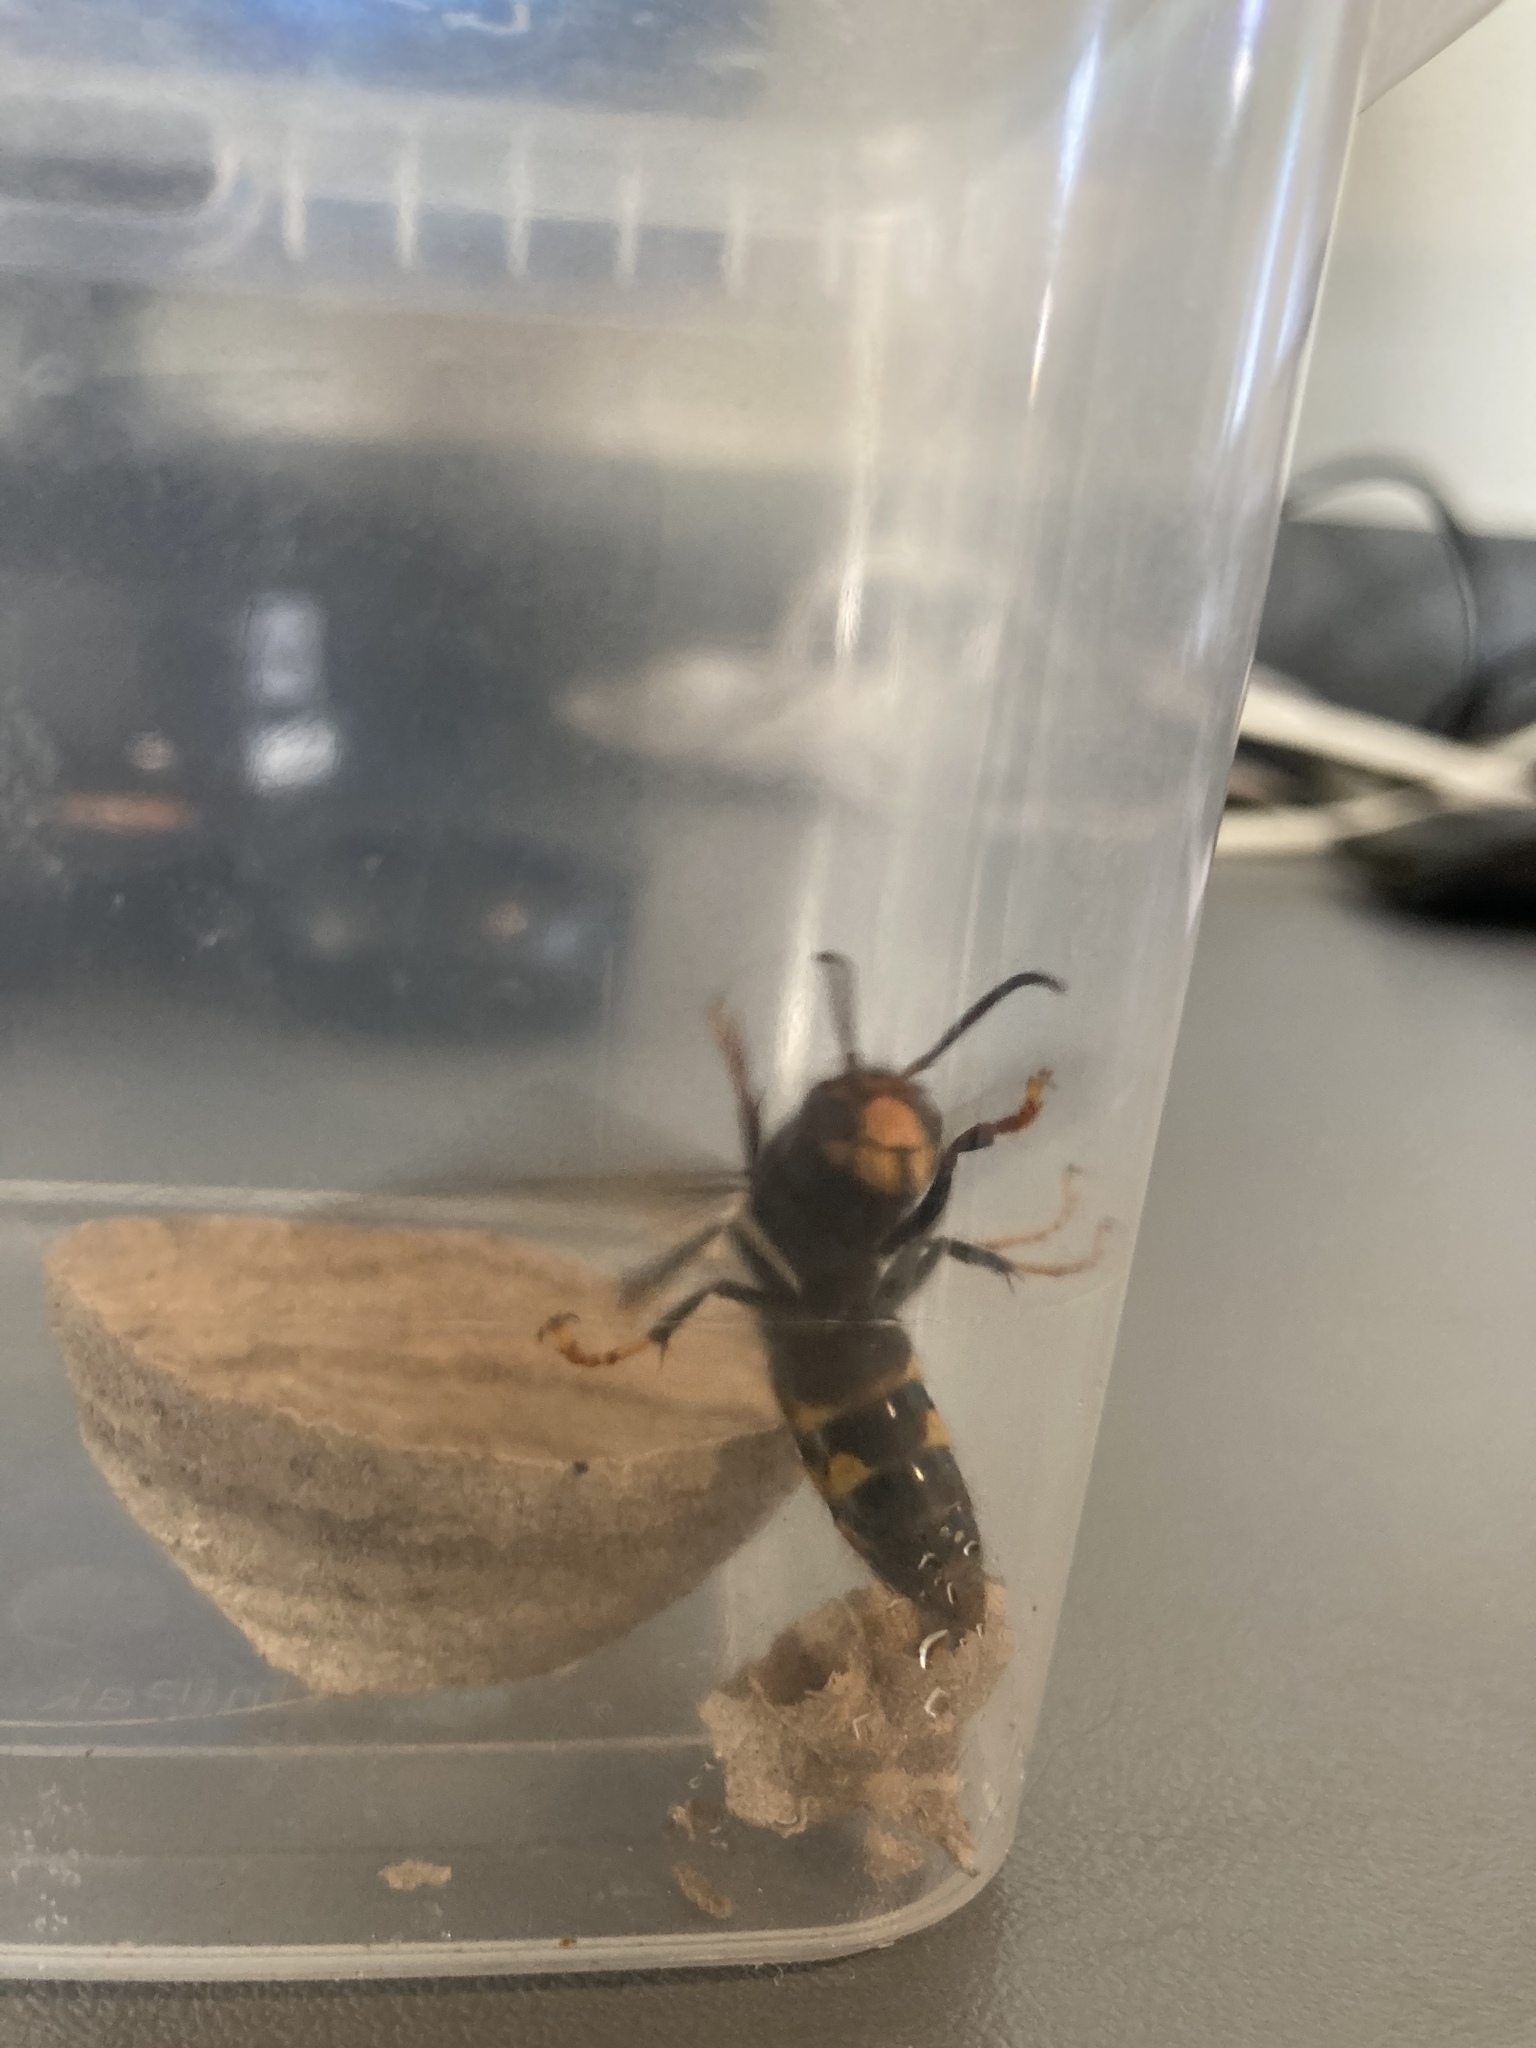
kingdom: Animalia
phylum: Arthropoda
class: Insecta
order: Hymenoptera
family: Vespidae
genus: Vespa
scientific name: Vespa velutina
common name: Asian hornet
